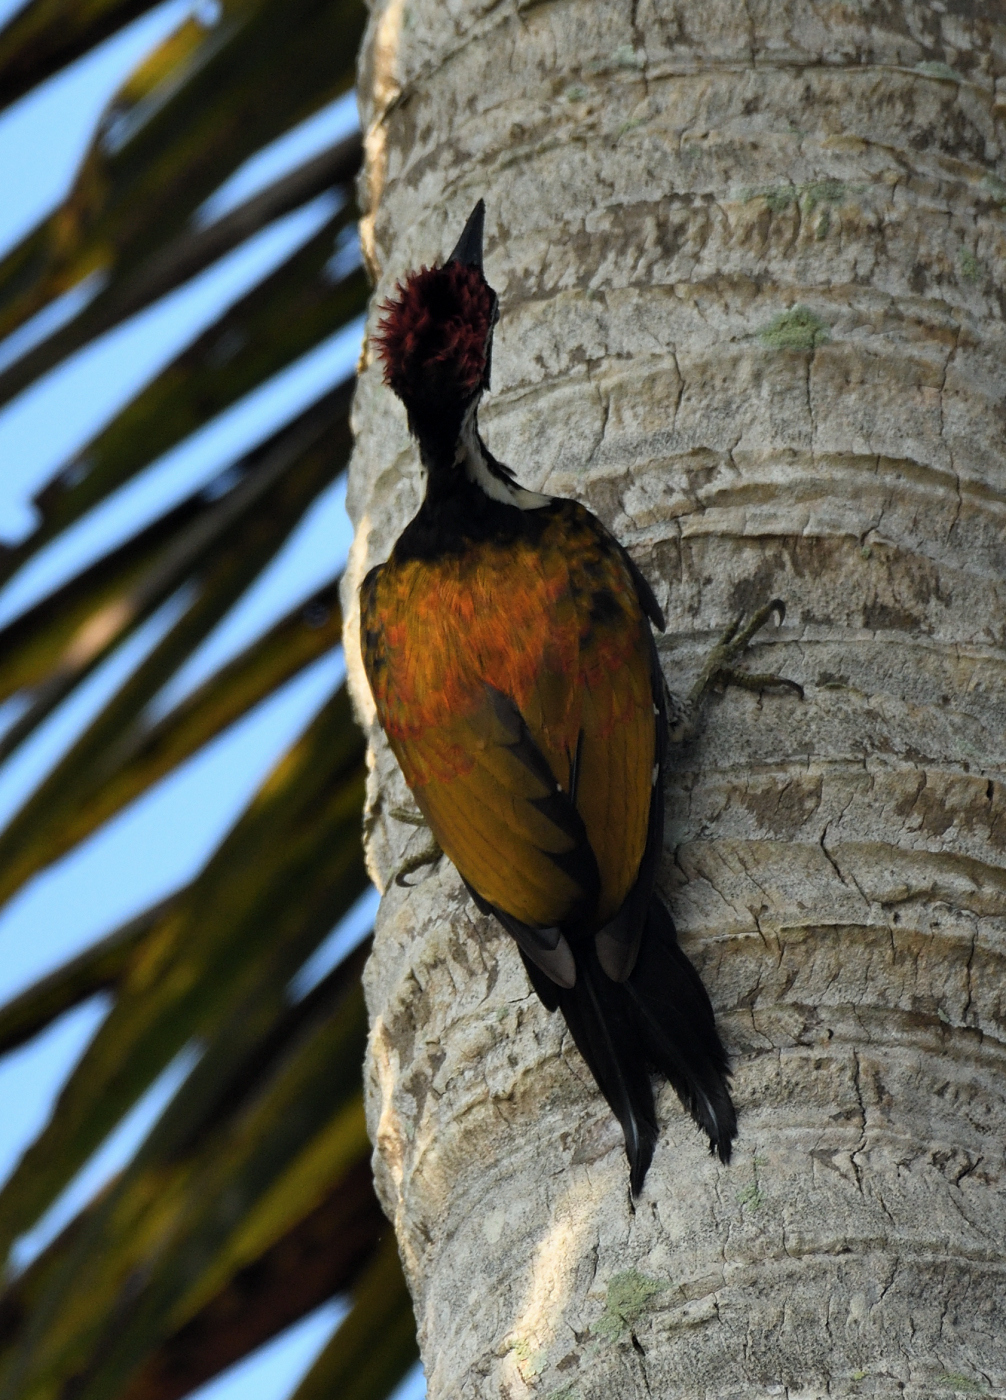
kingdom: Animalia
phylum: Chordata
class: Aves
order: Piciformes
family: Picidae
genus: Dinopium
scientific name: Dinopium benghalense
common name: Black-rumped flameback
